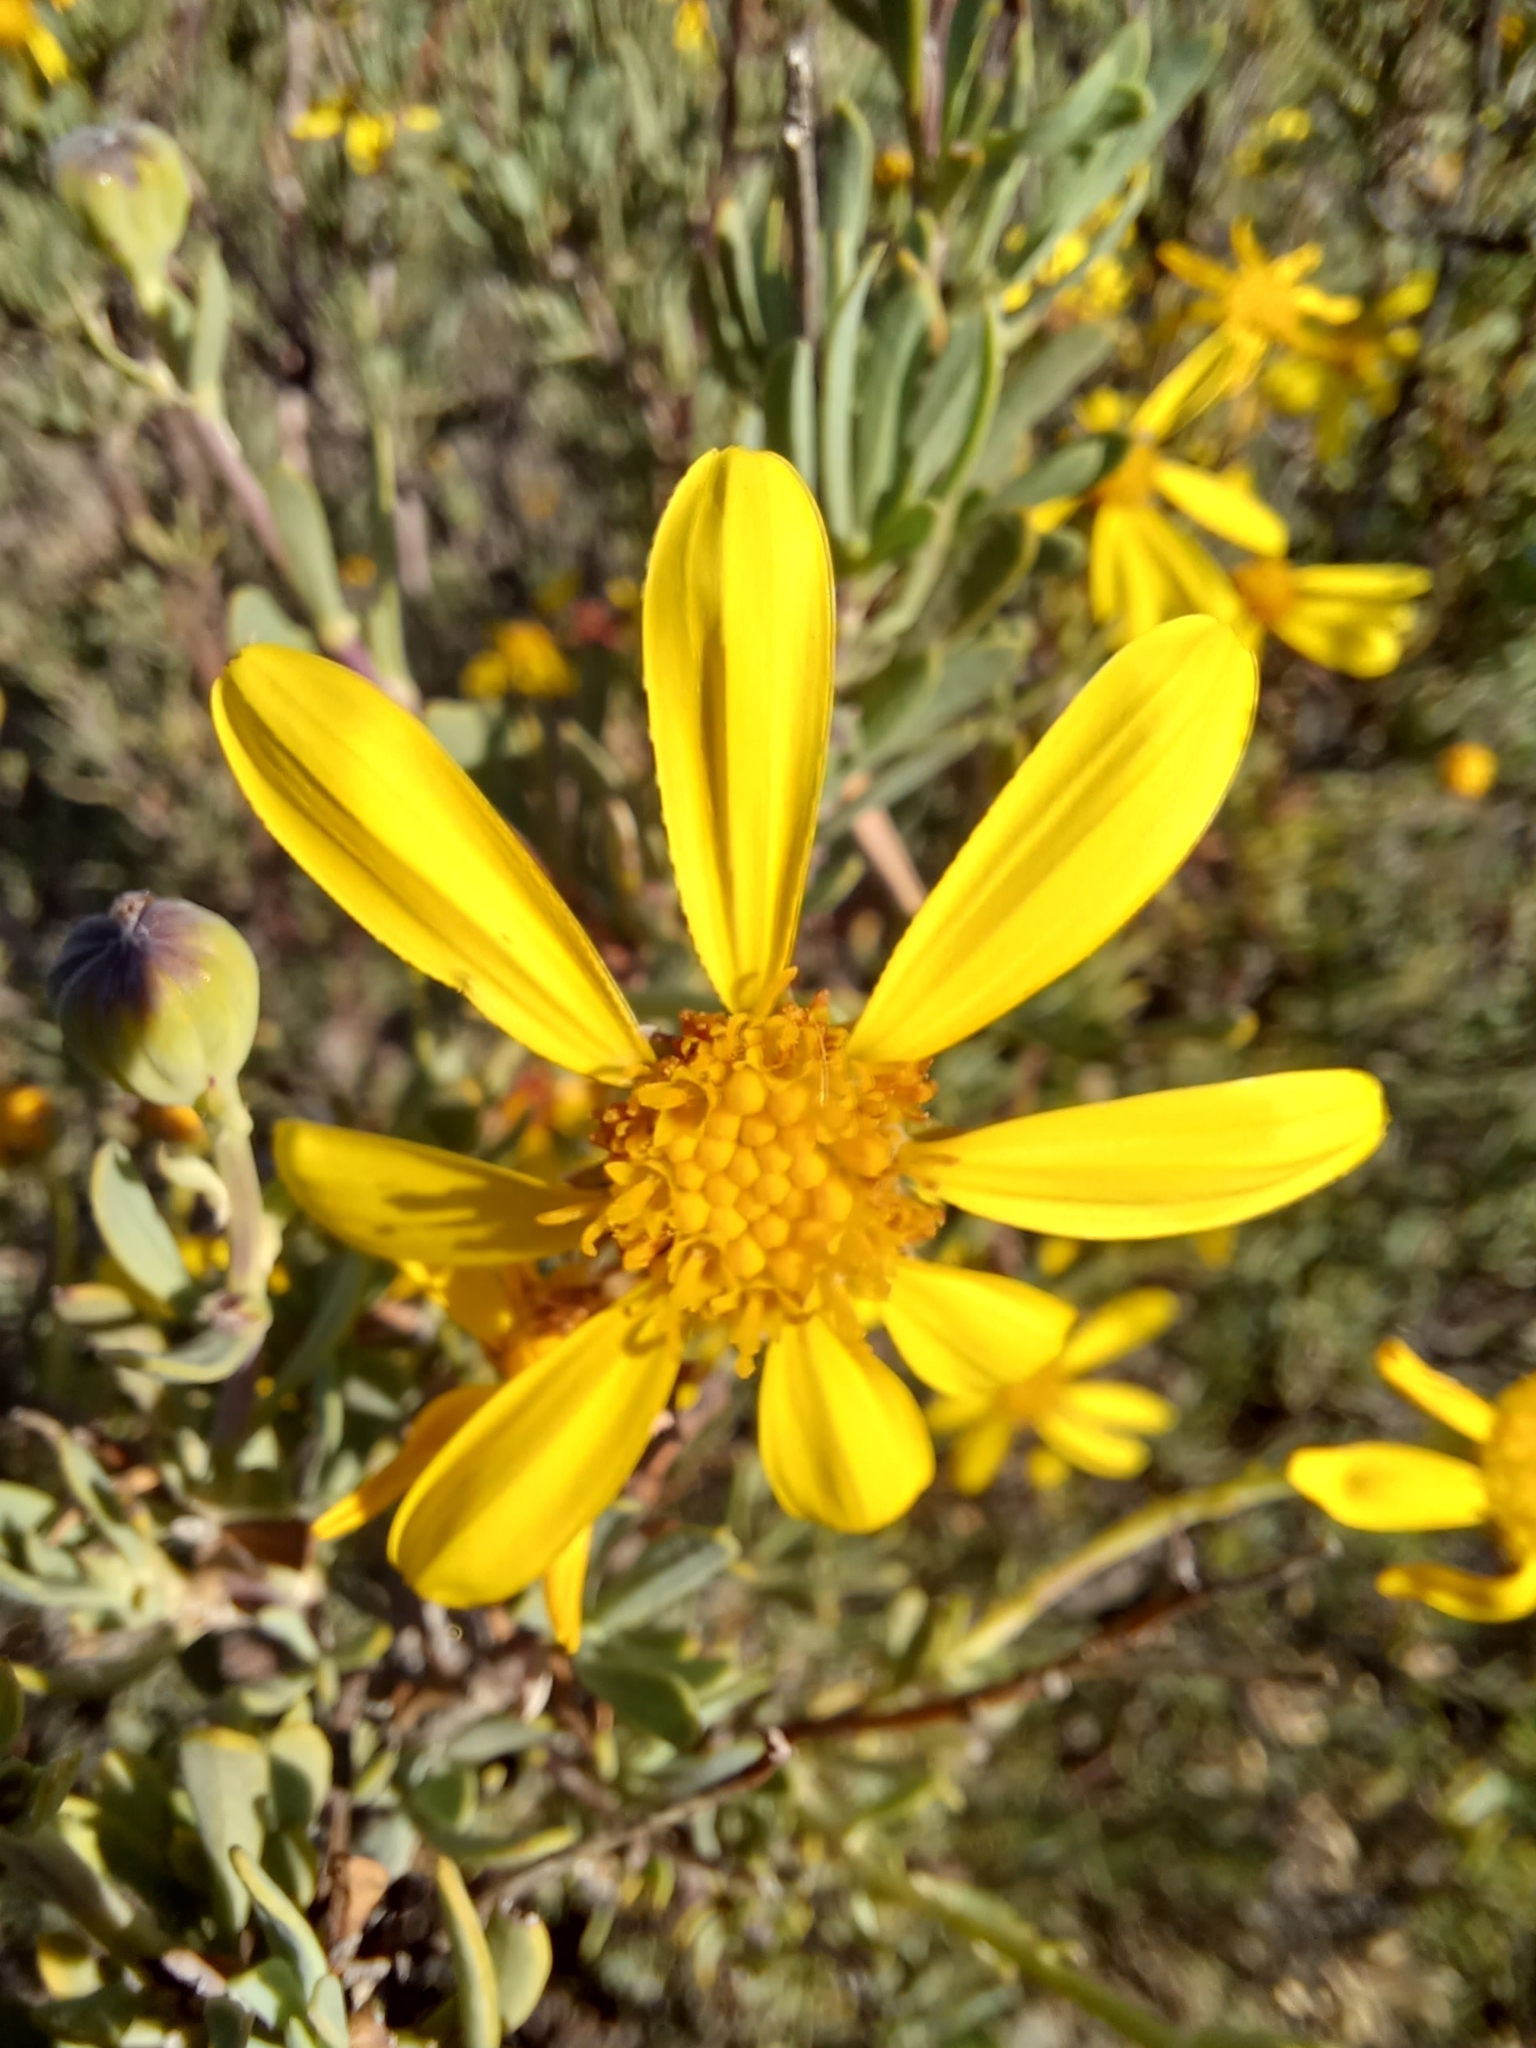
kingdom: Plantae
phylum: Tracheophyta
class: Magnoliopsida
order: Asterales
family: Asteraceae
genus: Othonna
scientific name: Othonna ramulosa
